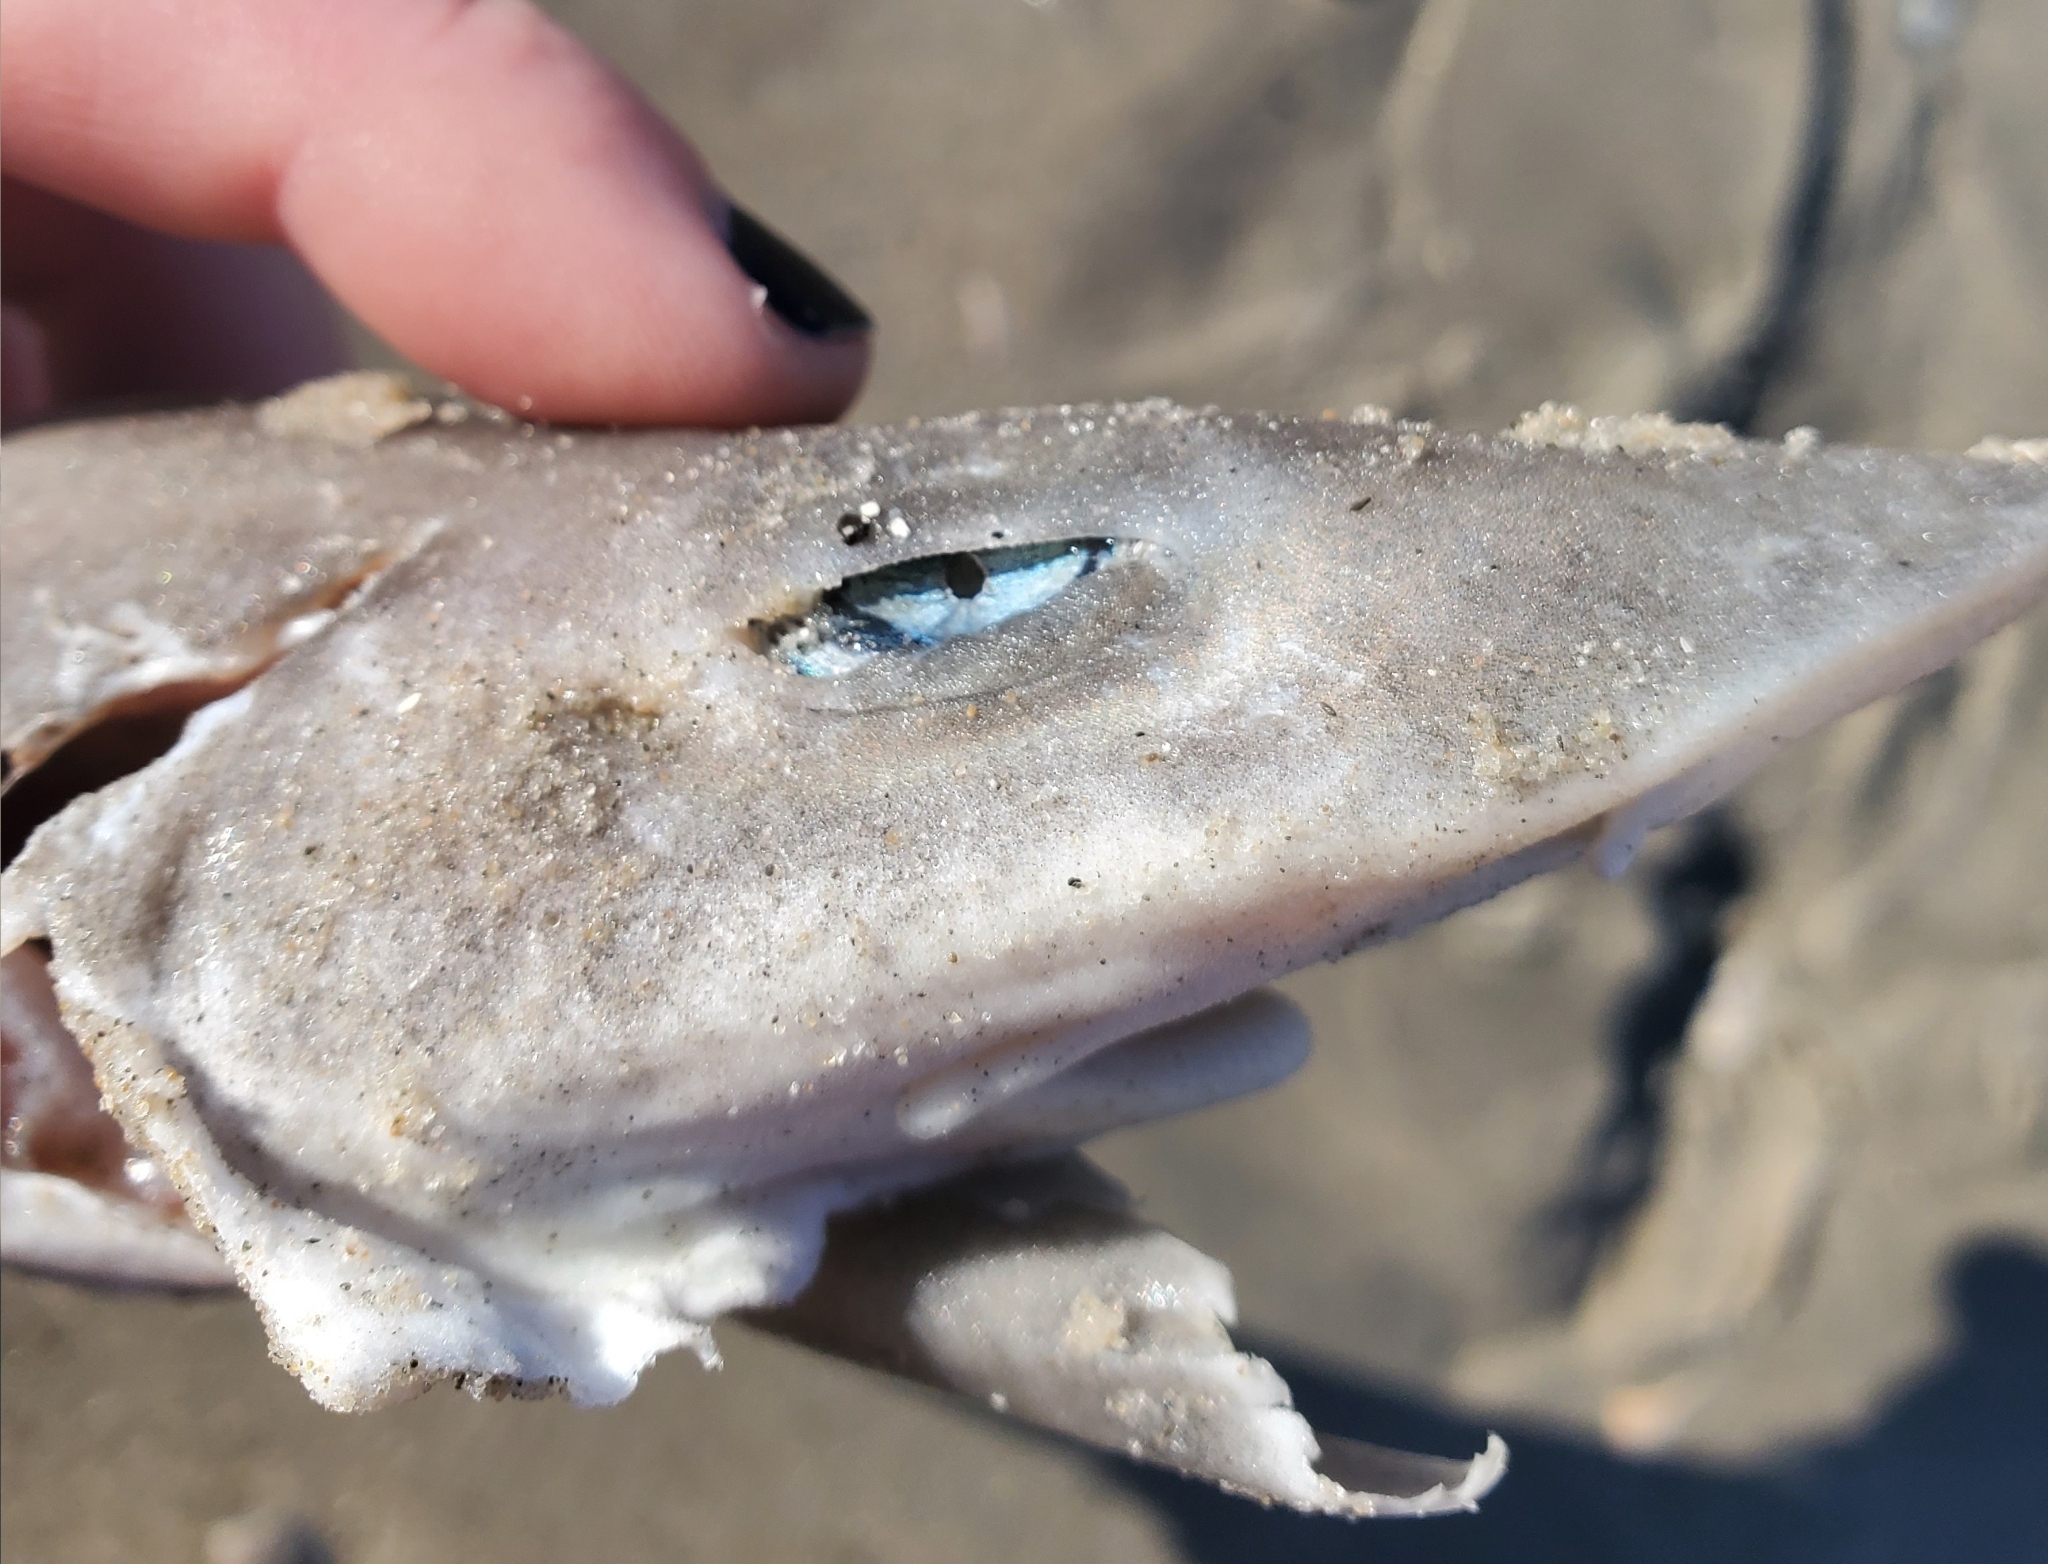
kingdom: Animalia
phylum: Chordata
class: Elasmobranchii
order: Carcharhiniformes
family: Triakidae
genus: Mustelus
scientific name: Mustelus canis
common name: Smooth dogfish
